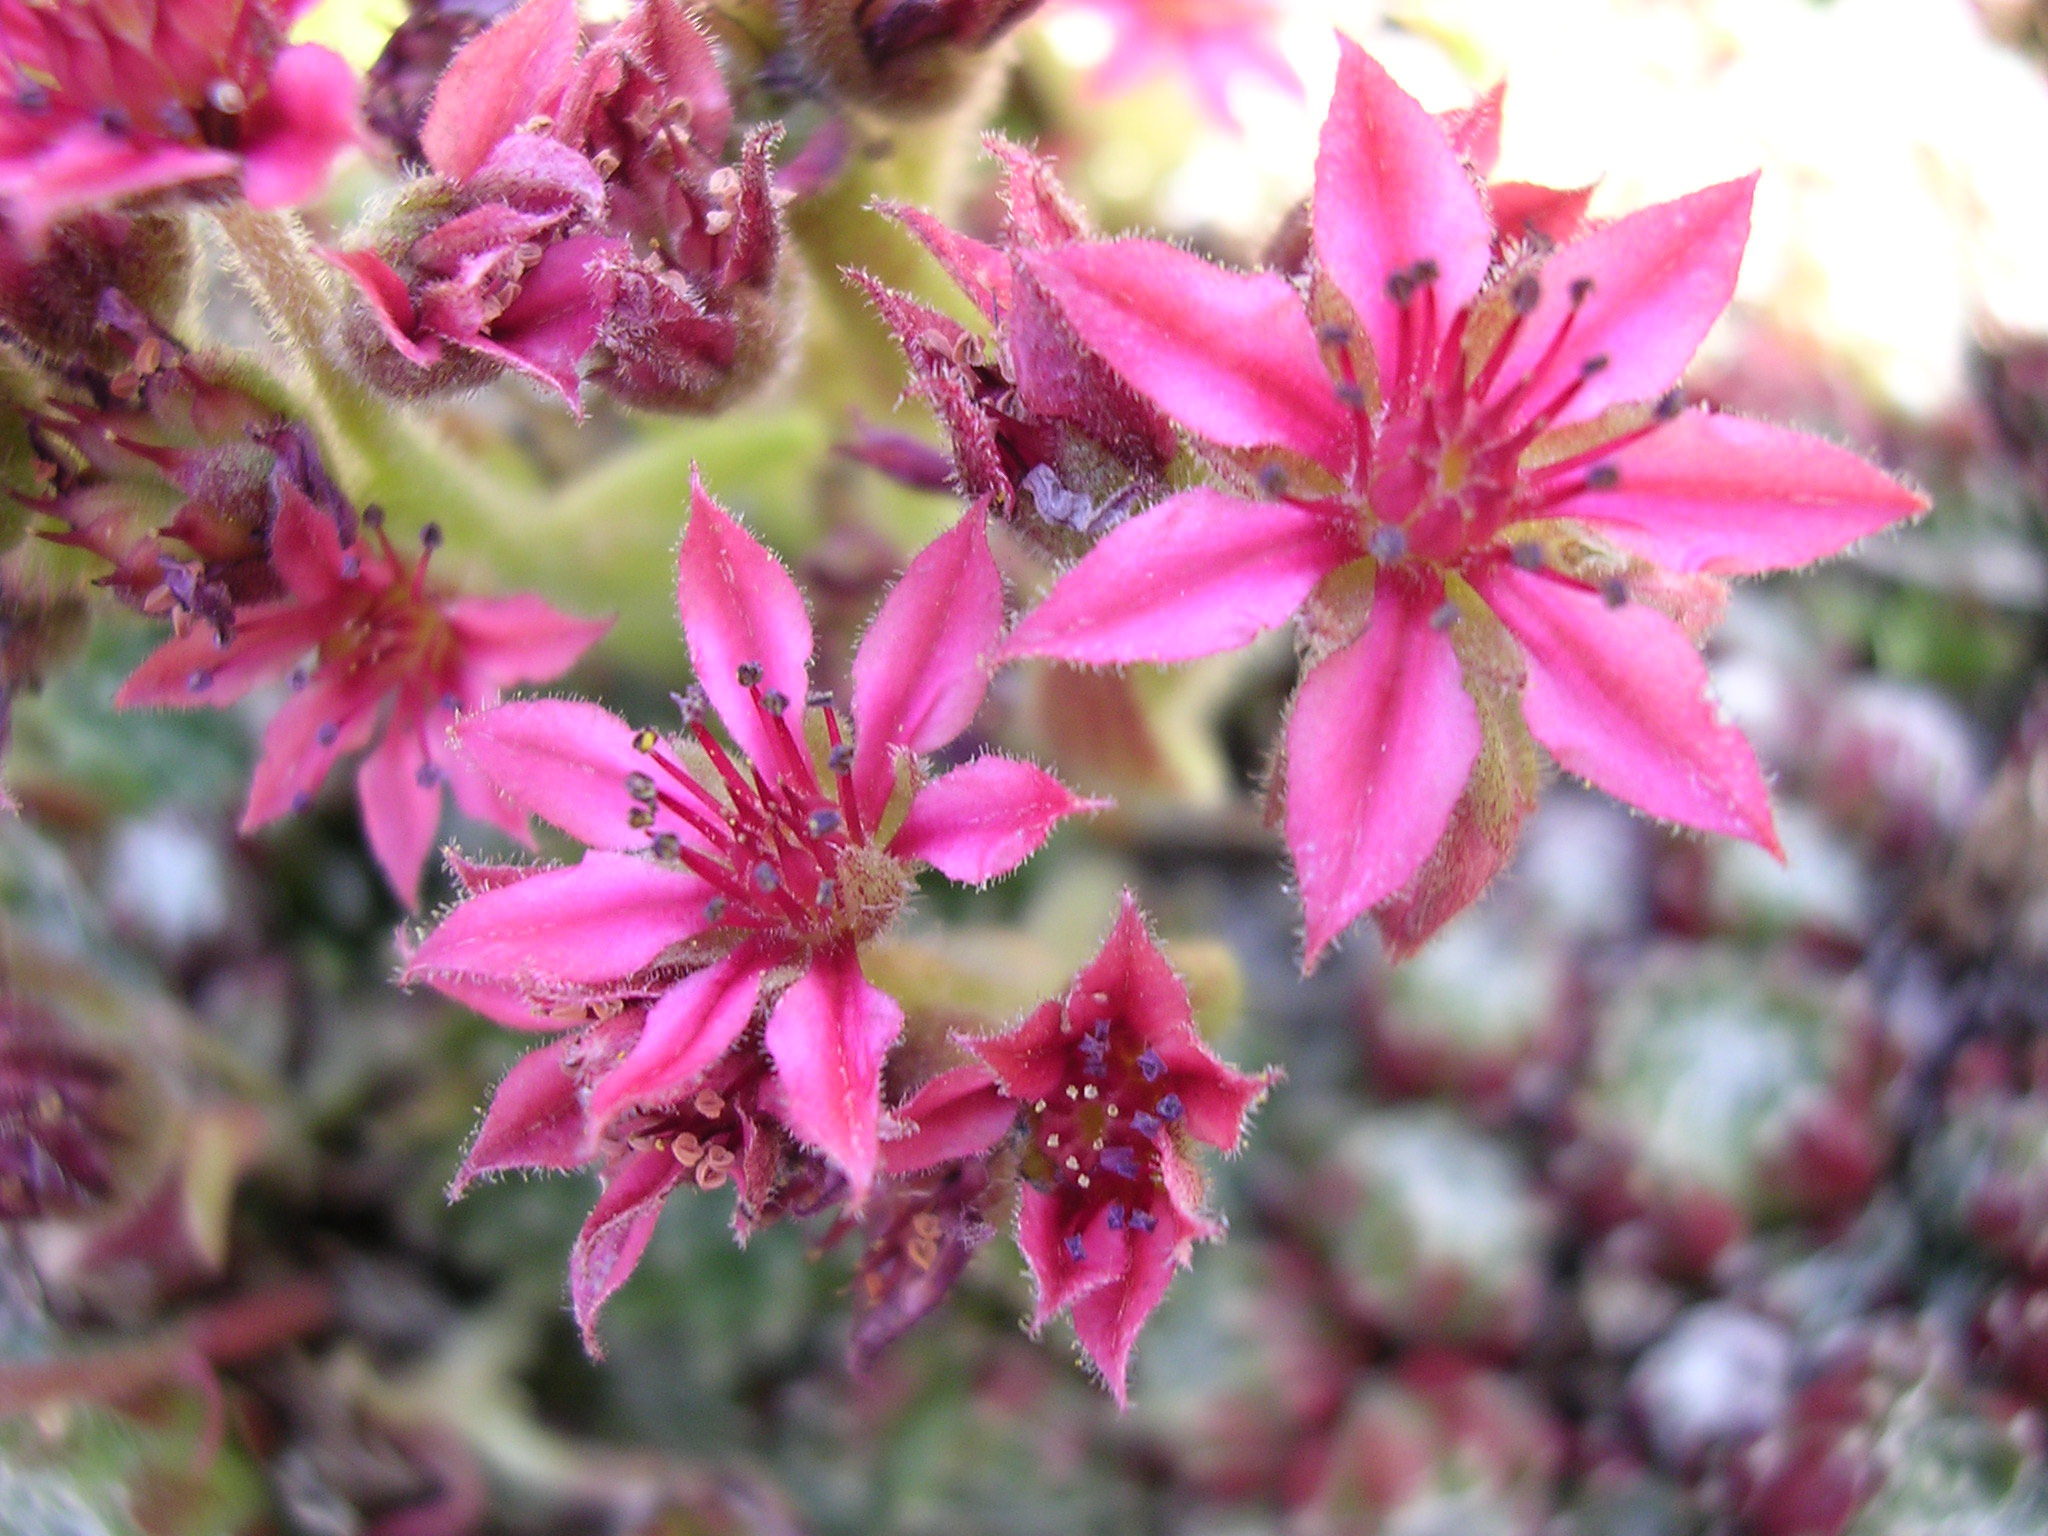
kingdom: Plantae
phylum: Tracheophyta
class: Magnoliopsida
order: Saxifragales
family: Crassulaceae
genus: Sempervivum
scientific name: Sempervivum arachnoideum
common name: Cobweb house-leek
